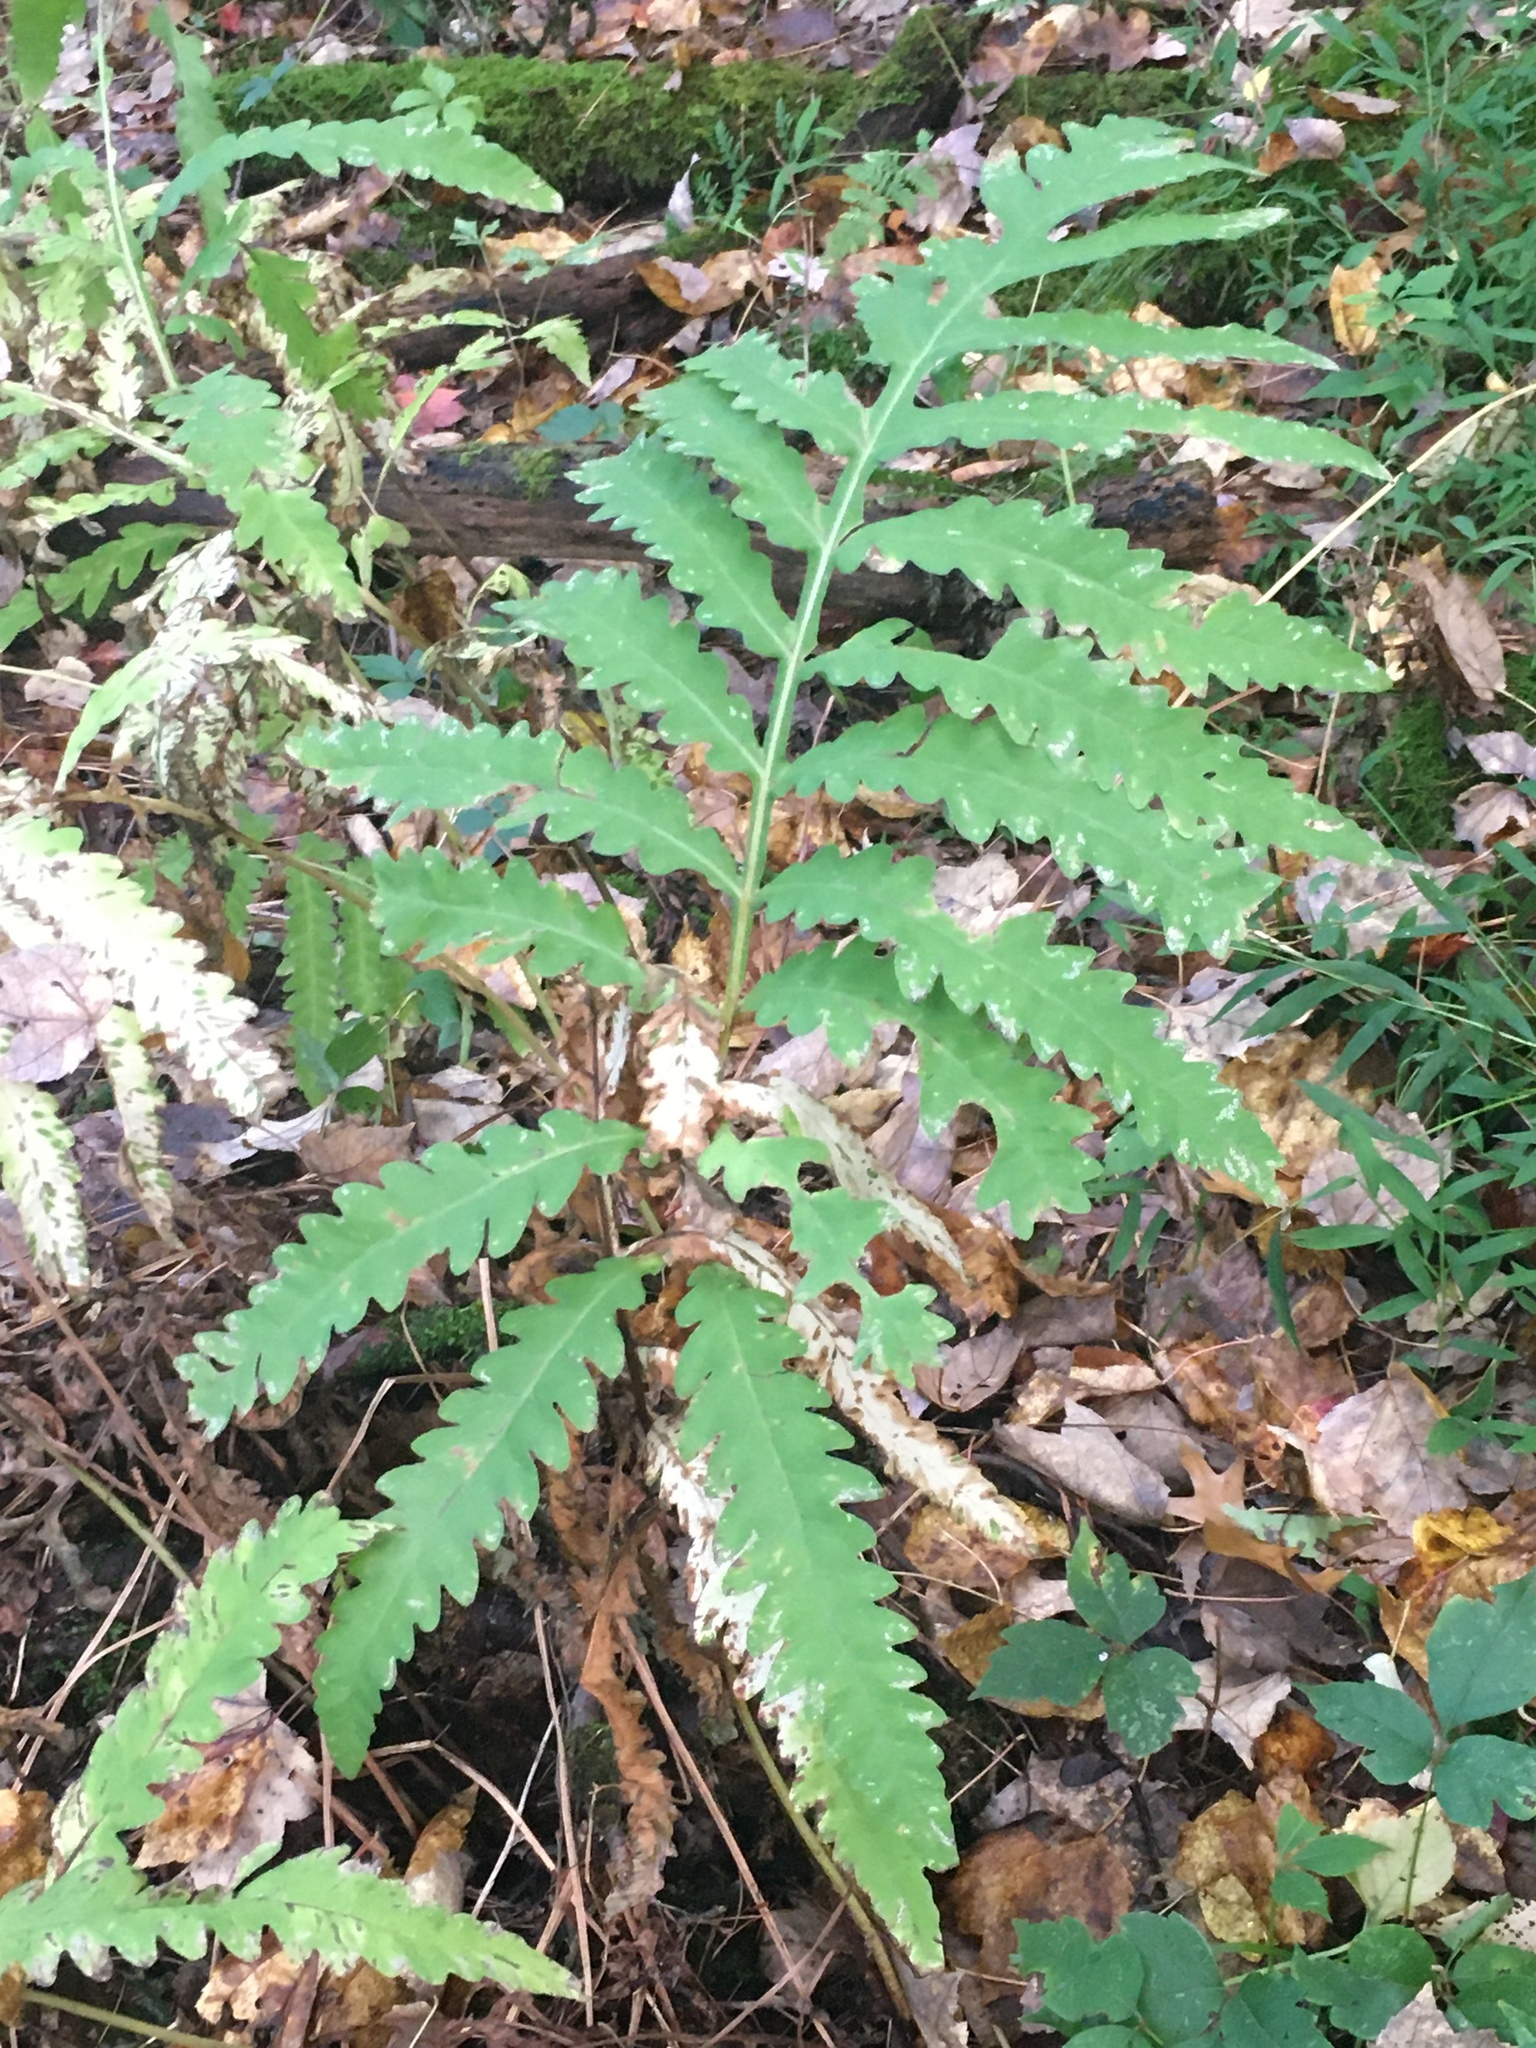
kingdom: Plantae
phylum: Tracheophyta
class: Polypodiopsida
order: Polypodiales
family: Onocleaceae
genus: Onoclea
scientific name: Onoclea sensibilis
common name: Sensitive fern
